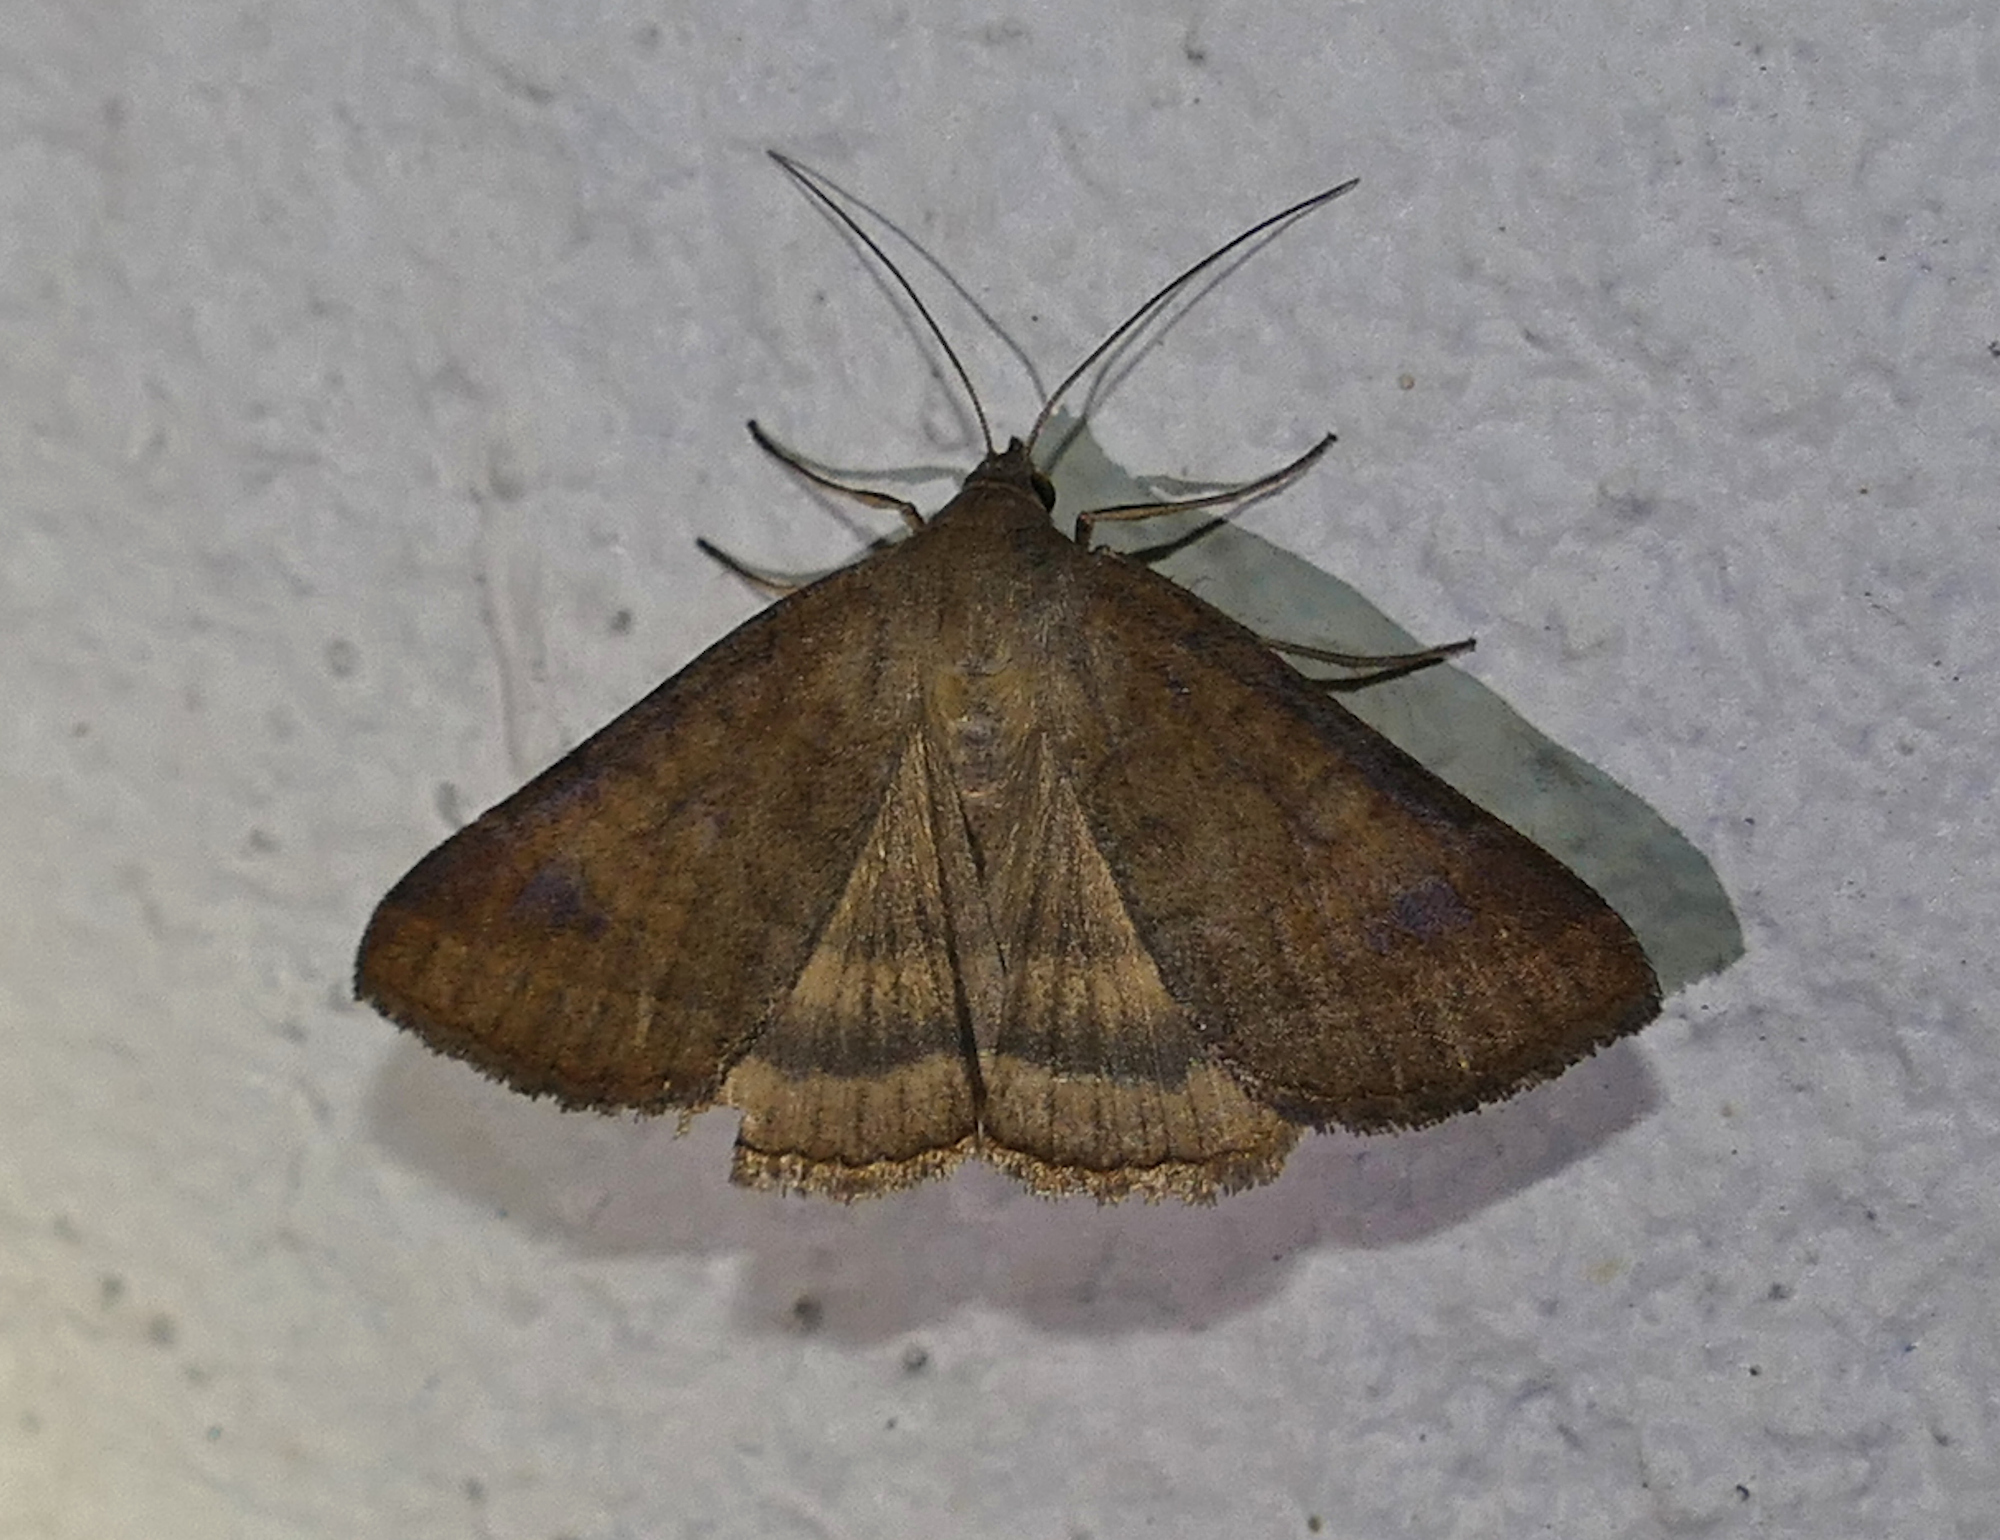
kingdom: Animalia
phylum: Arthropoda
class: Insecta
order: Lepidoptera
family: Erebidae
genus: Caenurgia
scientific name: Caenurgia chloropha
